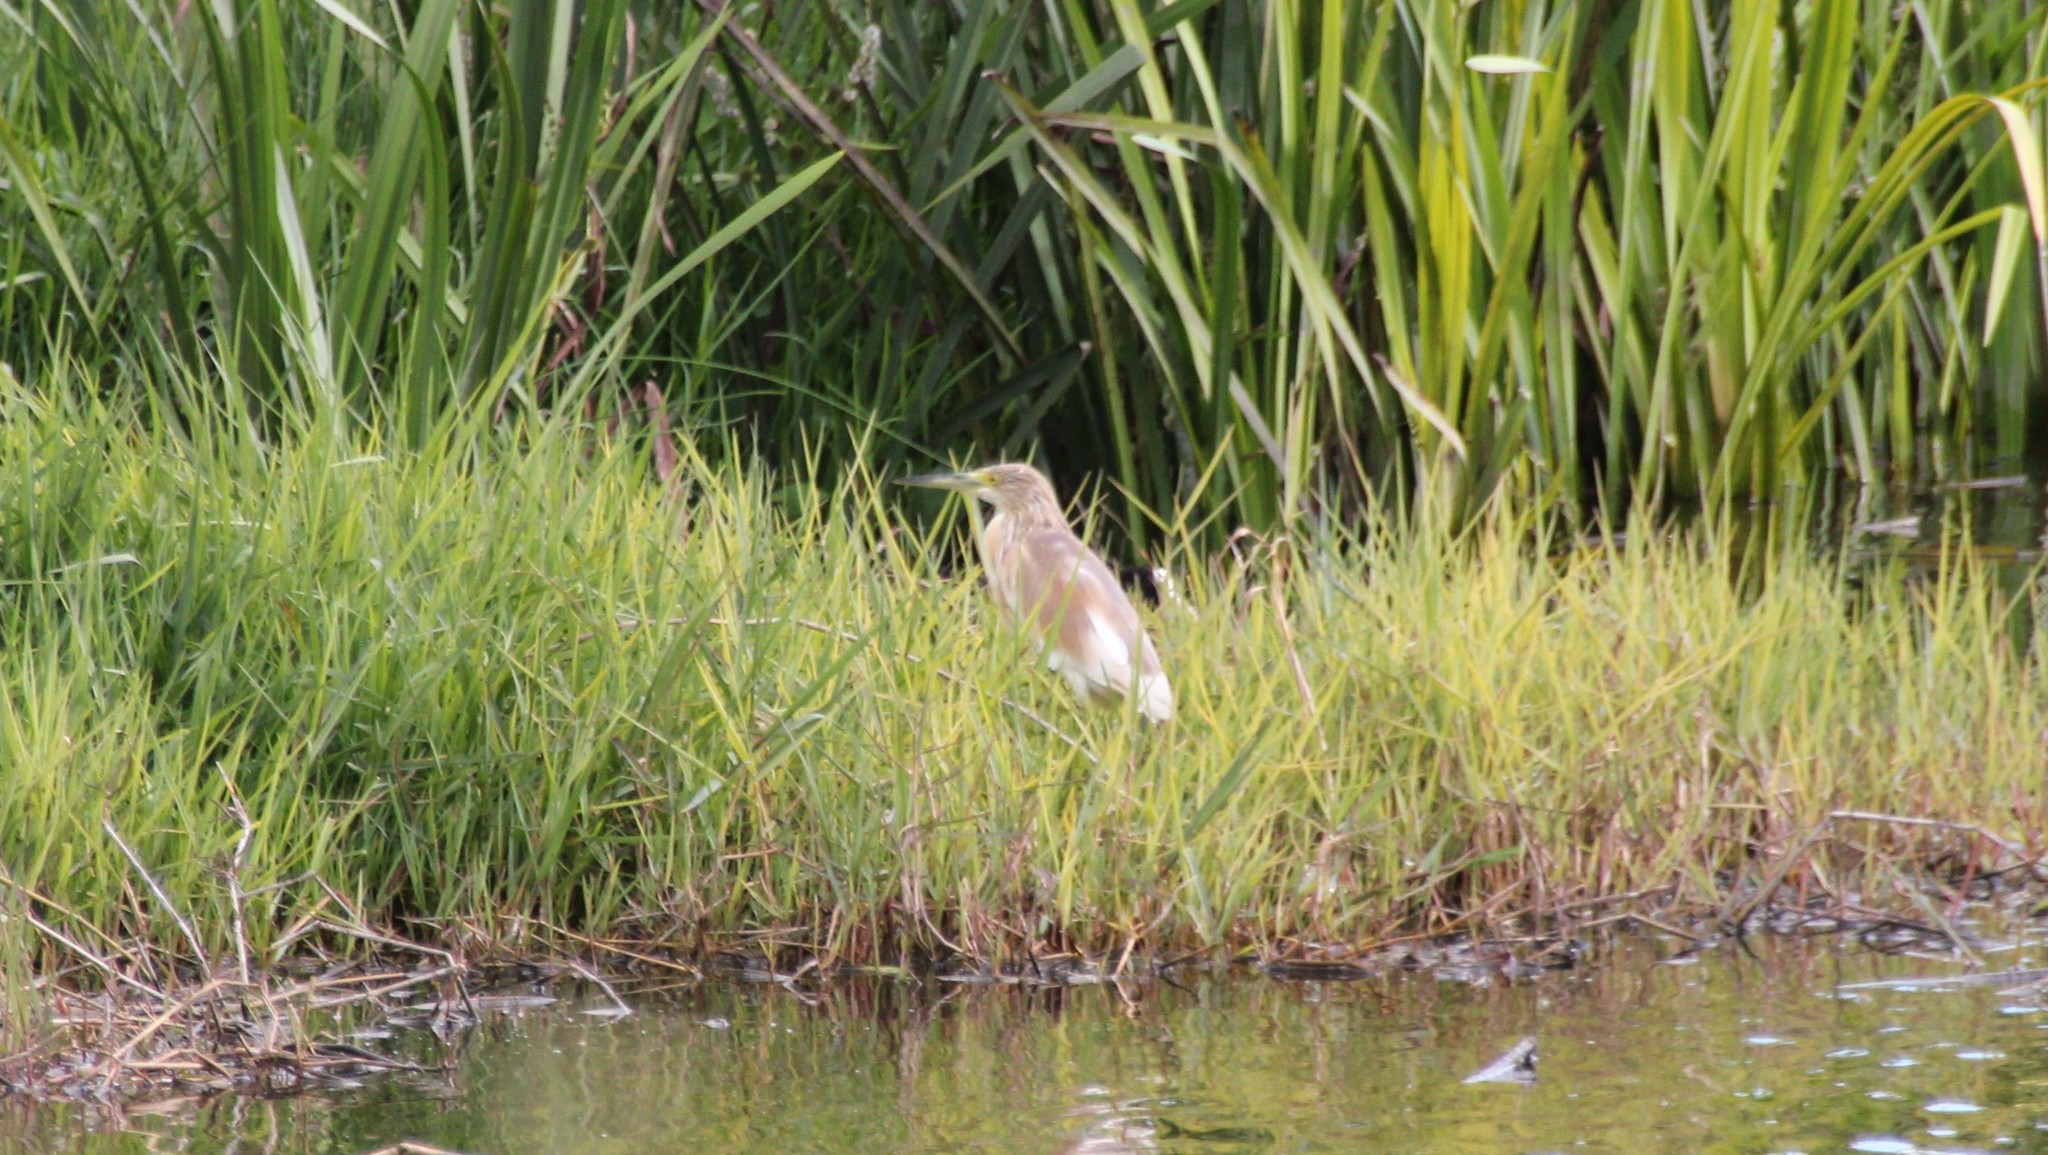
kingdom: Animalia
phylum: Chordata
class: Aves
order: Pelecaniformes
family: Ardeidae
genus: Ardeola
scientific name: Ardeola ralloides
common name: Squacco heron
